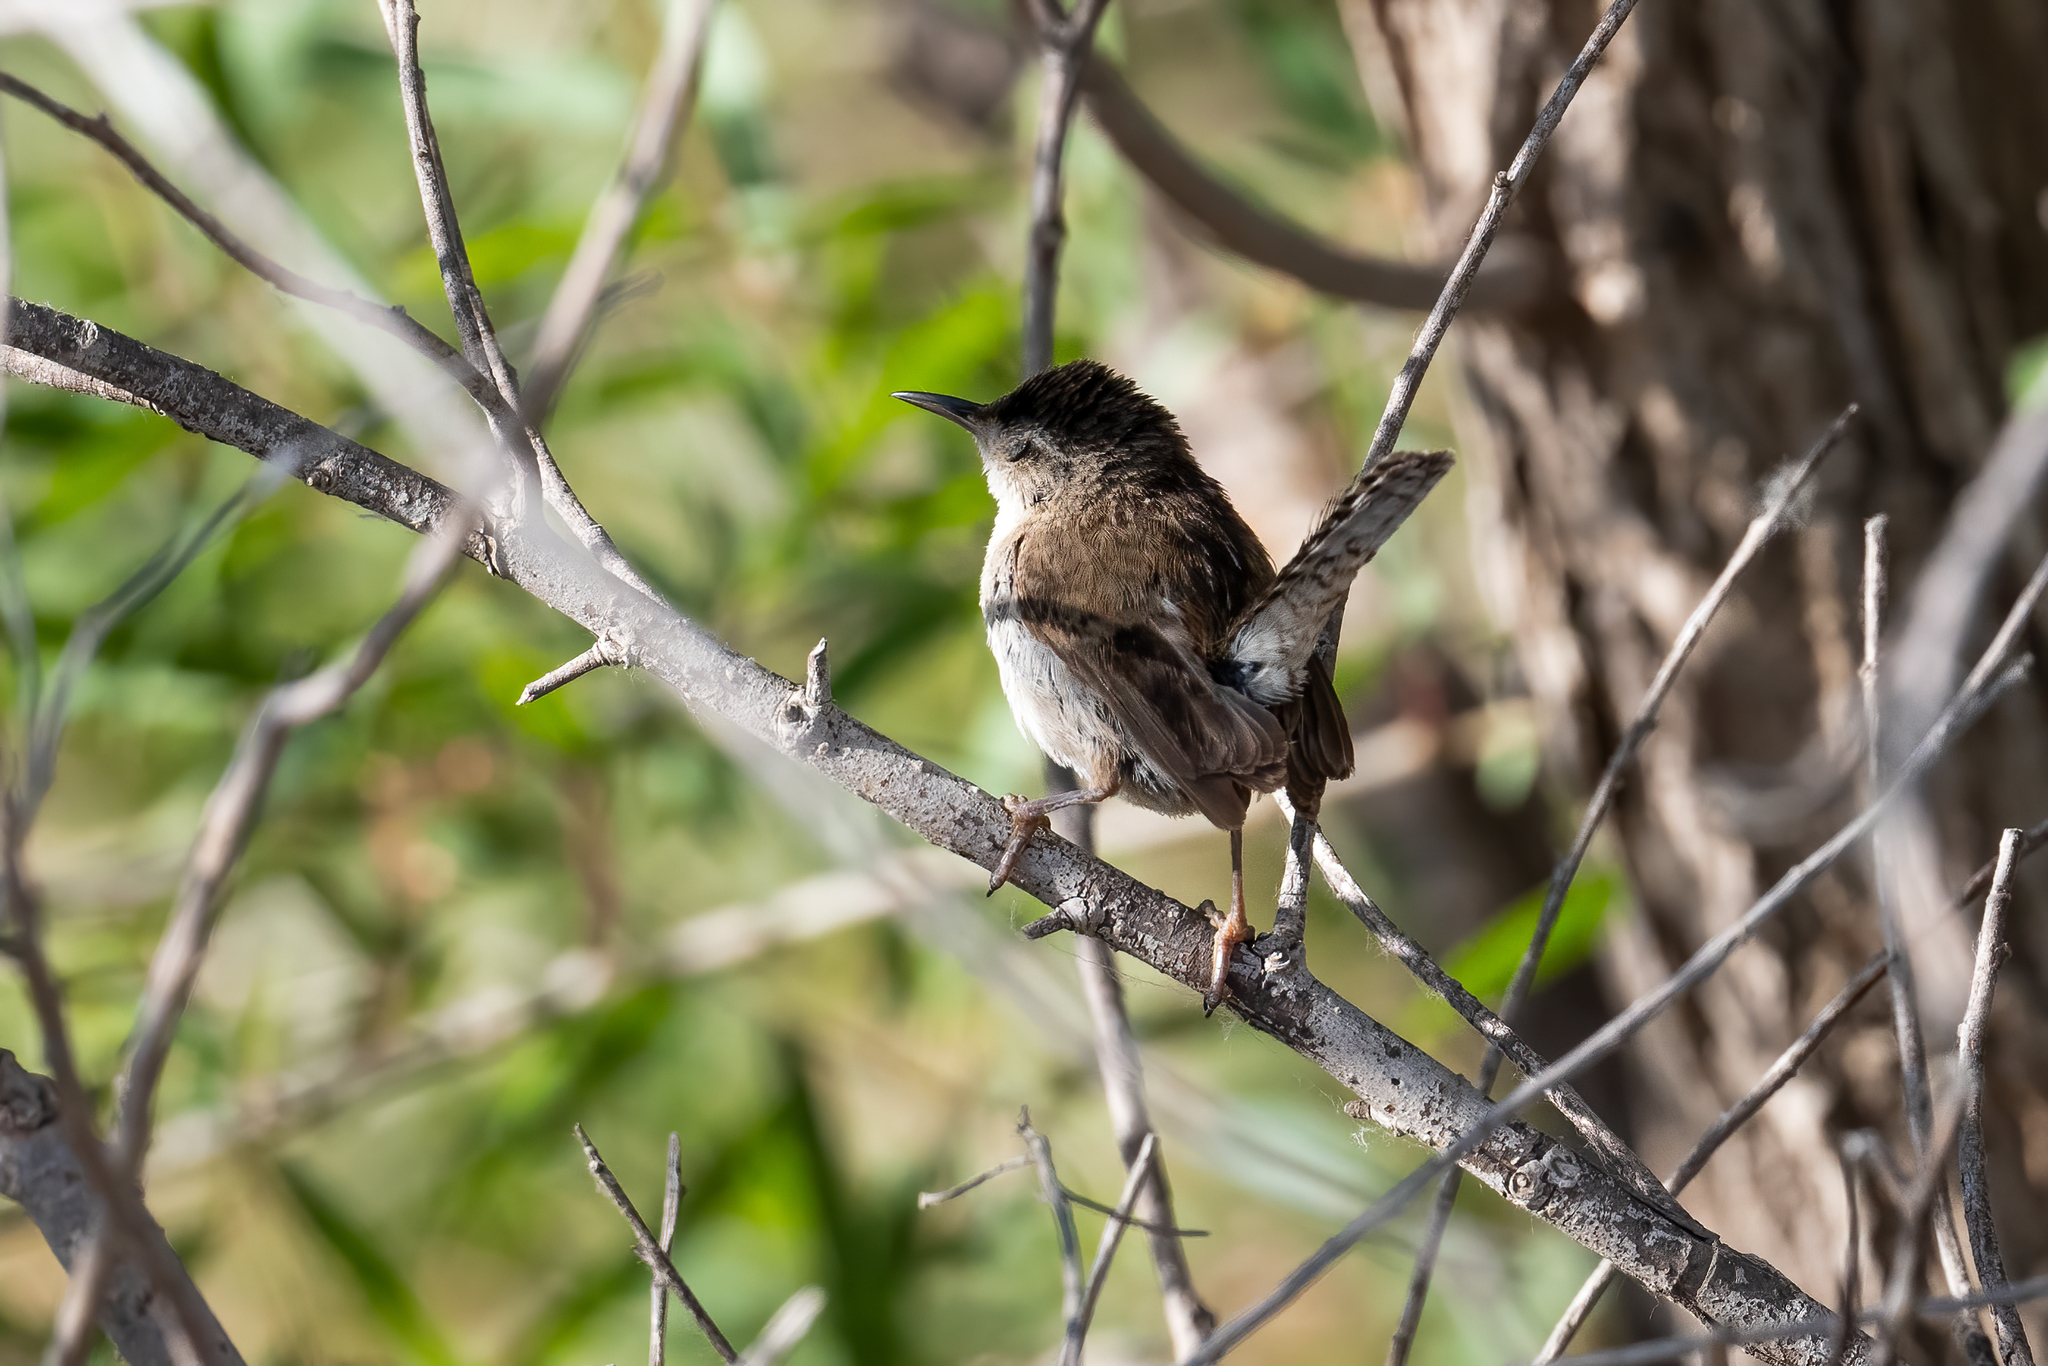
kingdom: Animalia
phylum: Chordata
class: Aves
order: Passeriformes
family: Troglodytidae
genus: Cistothorus
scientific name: Cistothorus palustris
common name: Marsh wren
